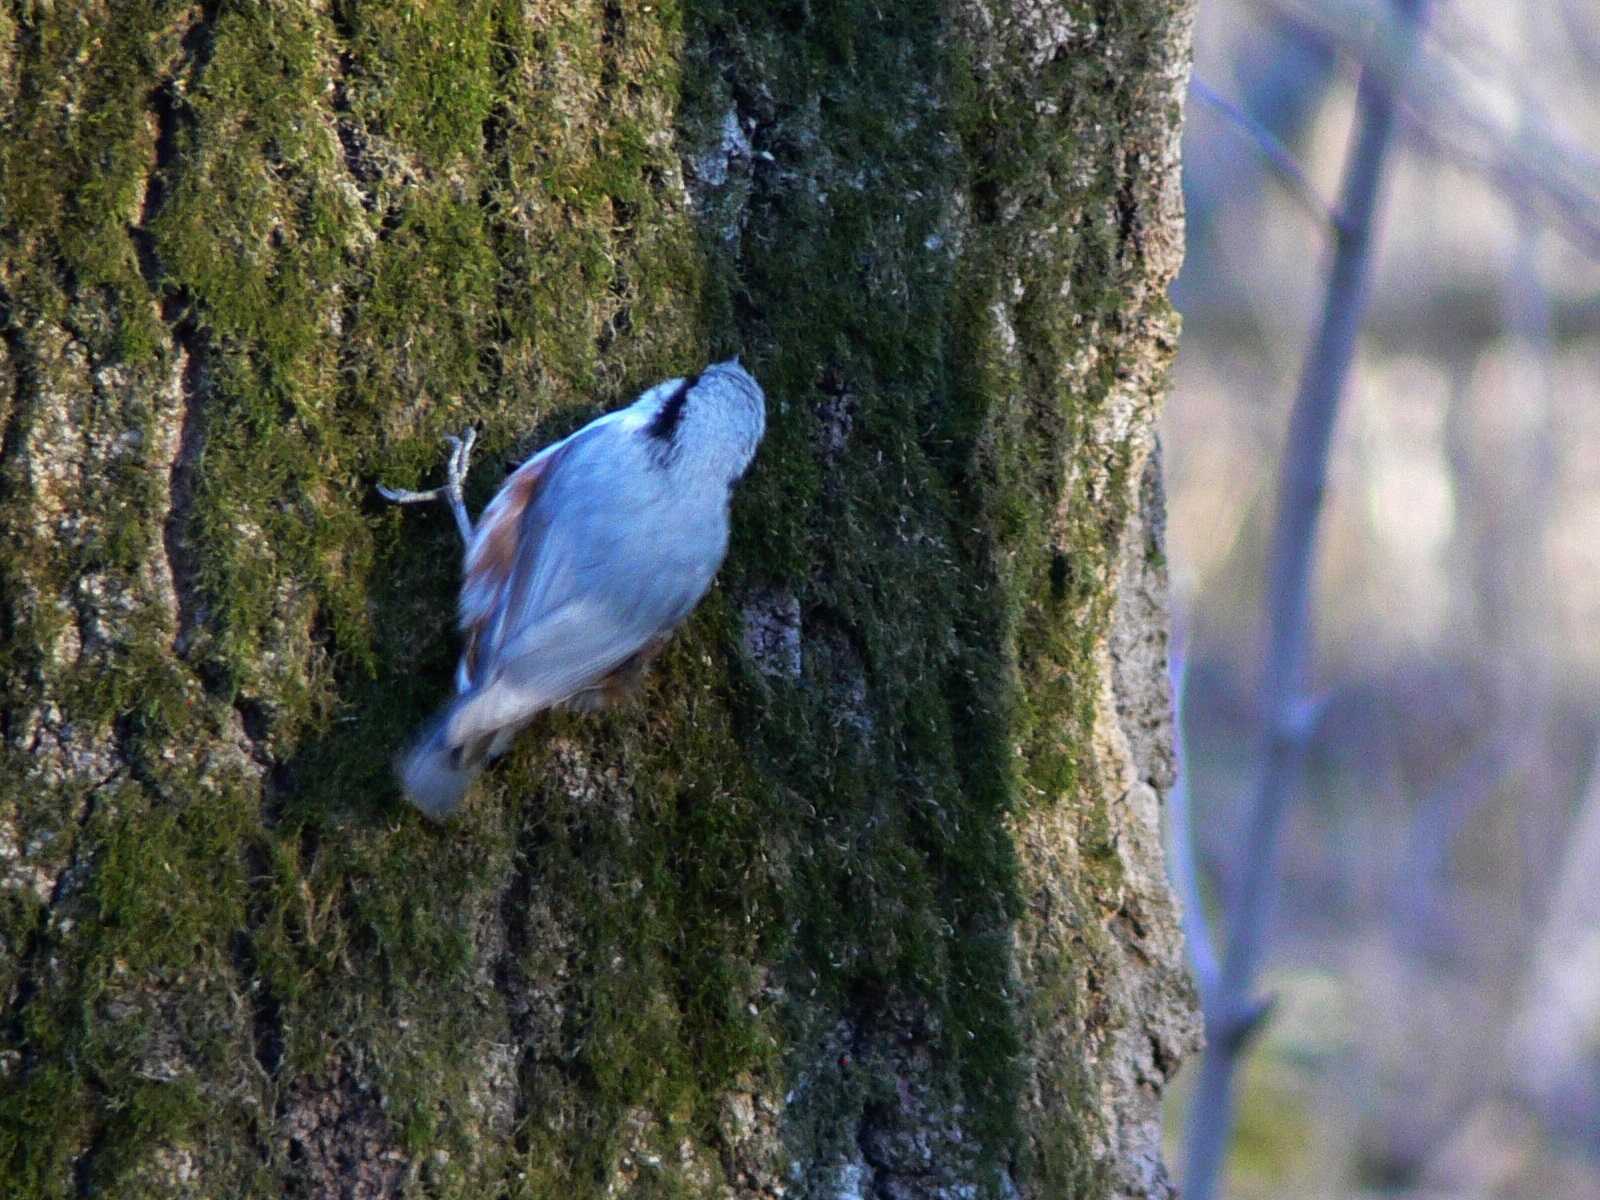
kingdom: Animalia
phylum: Chordata
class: Aves
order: Passeriformes
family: Sittidae
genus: Sitta
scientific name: Sitta europaea
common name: Eurasian nuthatch
